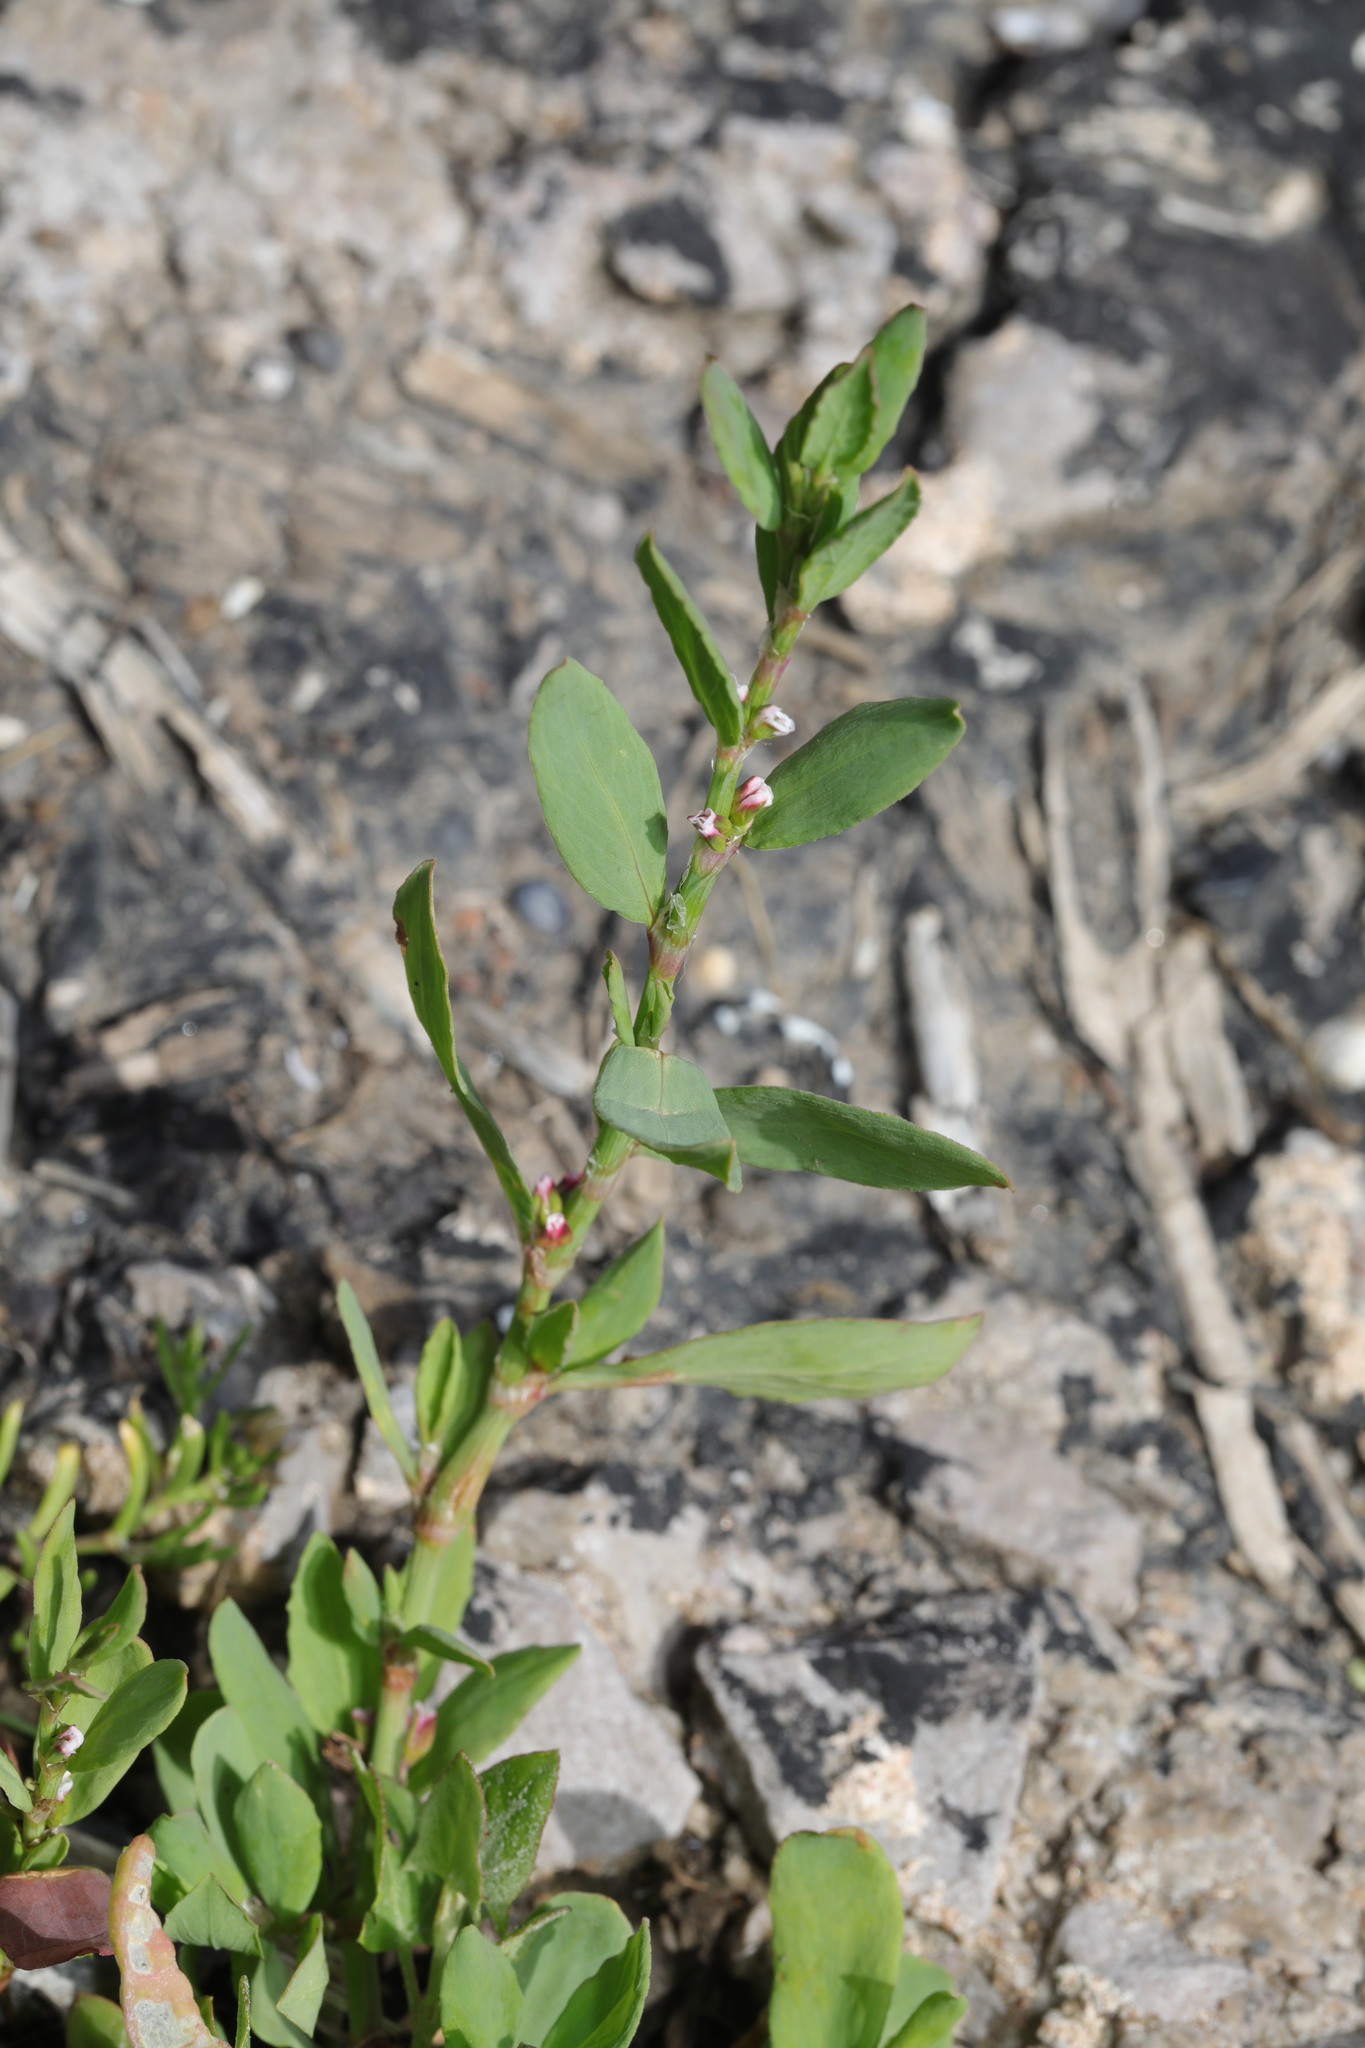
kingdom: Plantae
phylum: Tracheophyta
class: Magnoliopsida
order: Caryophyllales
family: Polygonaceae
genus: Polygonum
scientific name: Polygonum aviculare
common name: Prostrate knotweed
